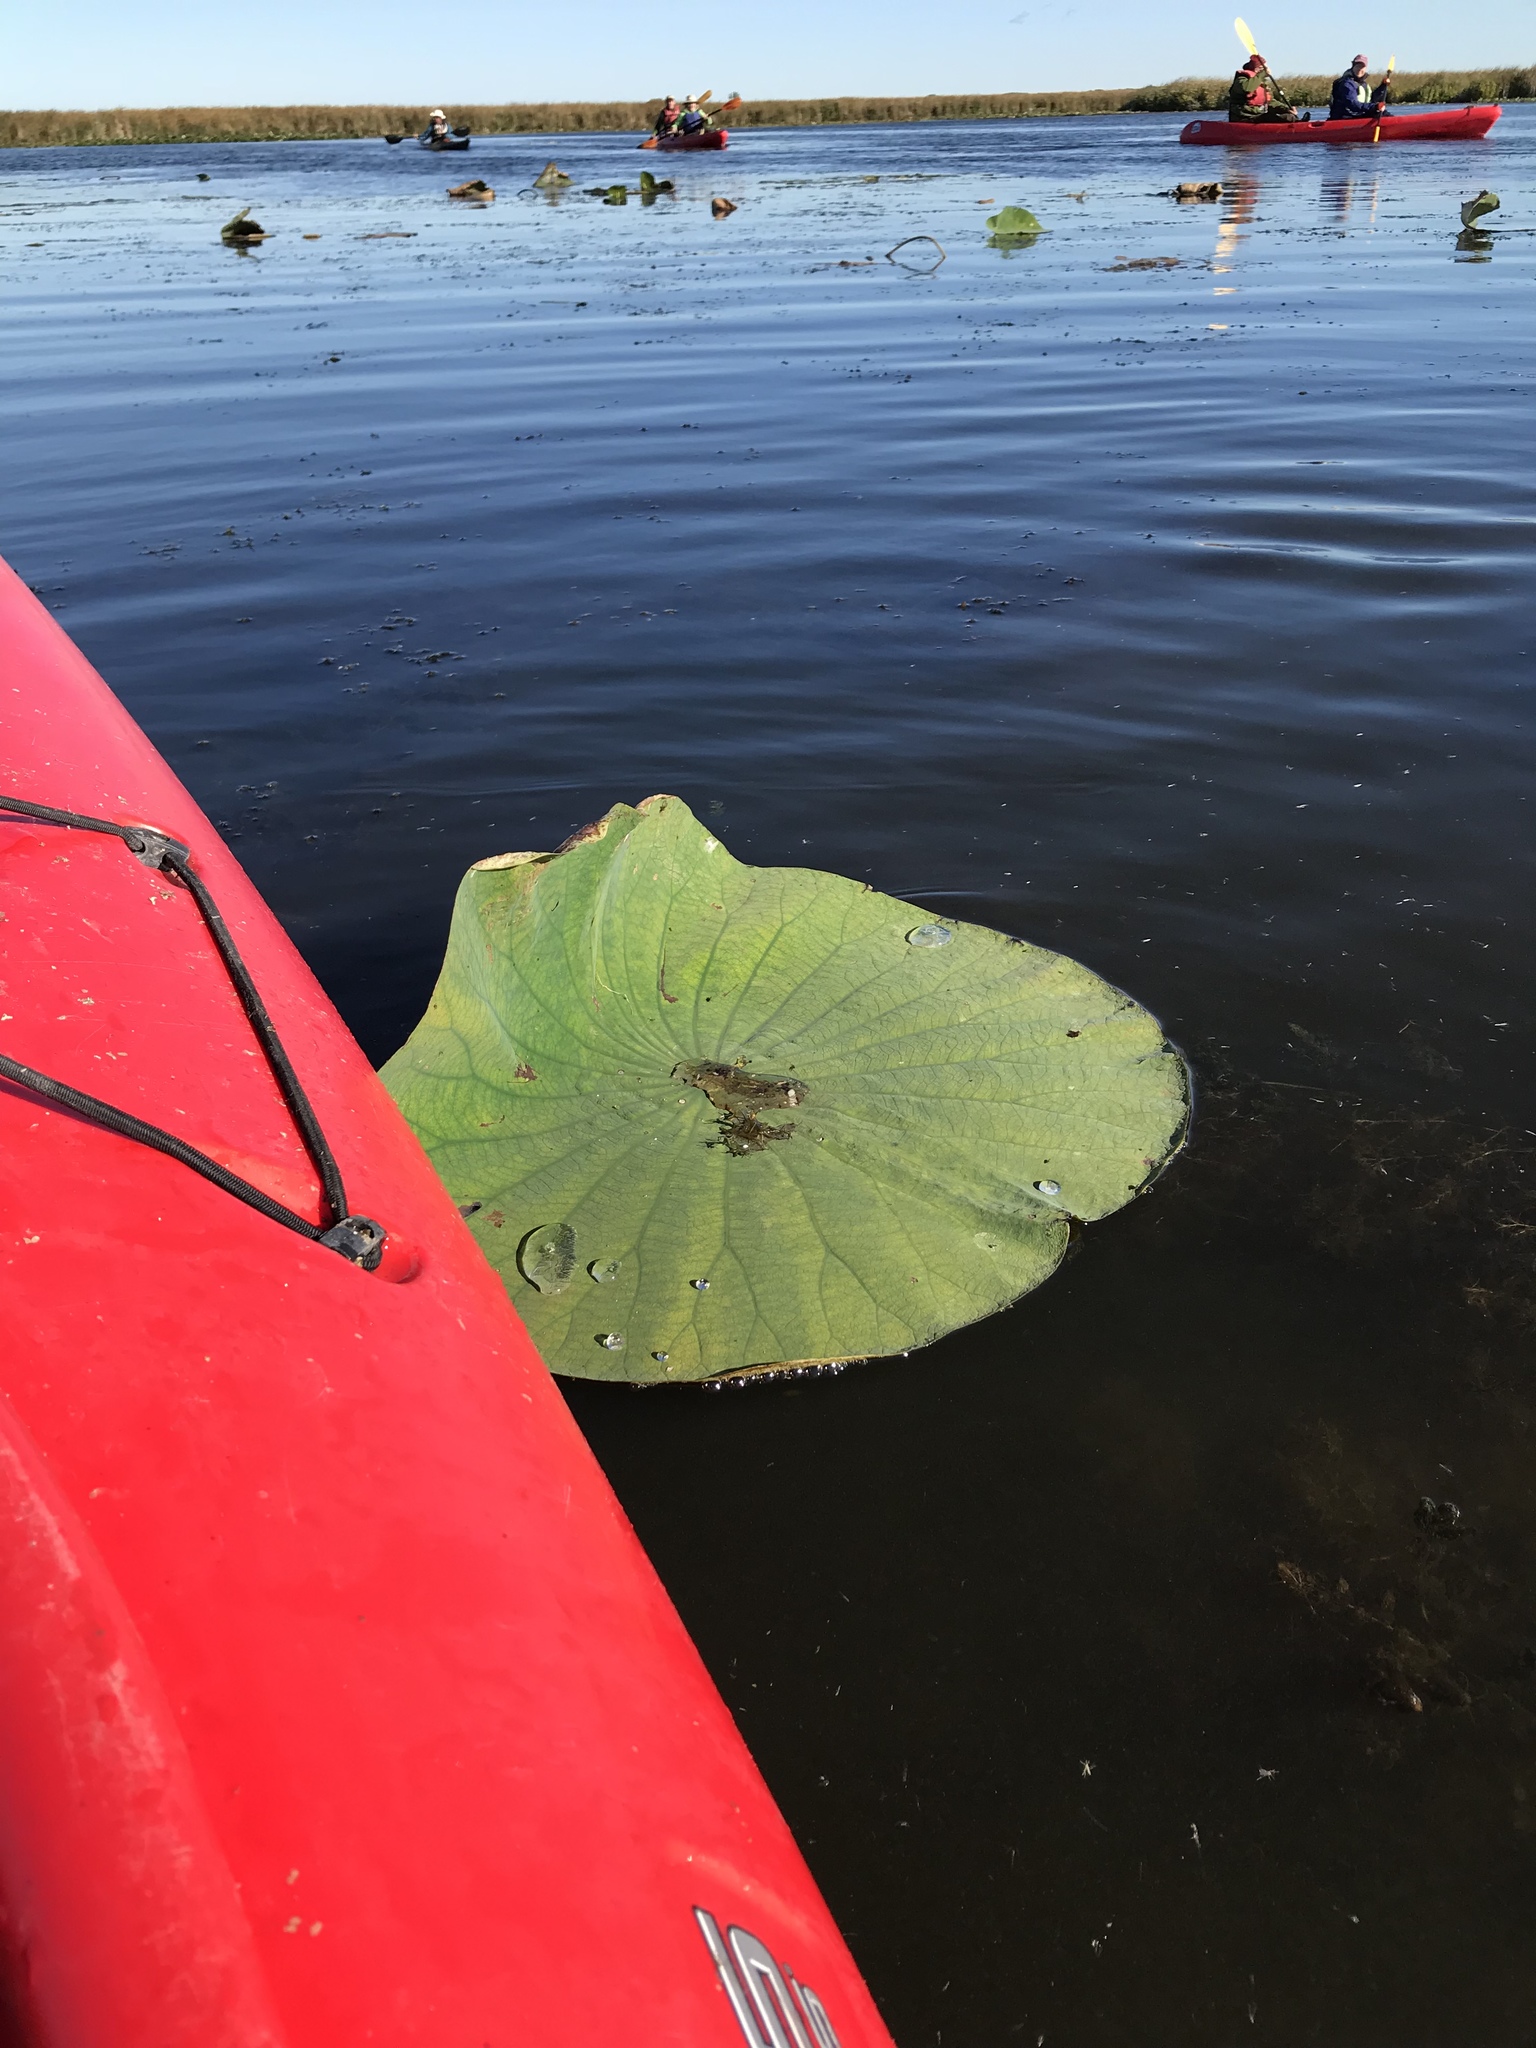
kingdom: Plantae
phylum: Tracheophyta
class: Magnoliopsida
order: Proteales
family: Nelumbonaceae
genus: Nelumbo
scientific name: Nelumbo lutea
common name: American lotus
